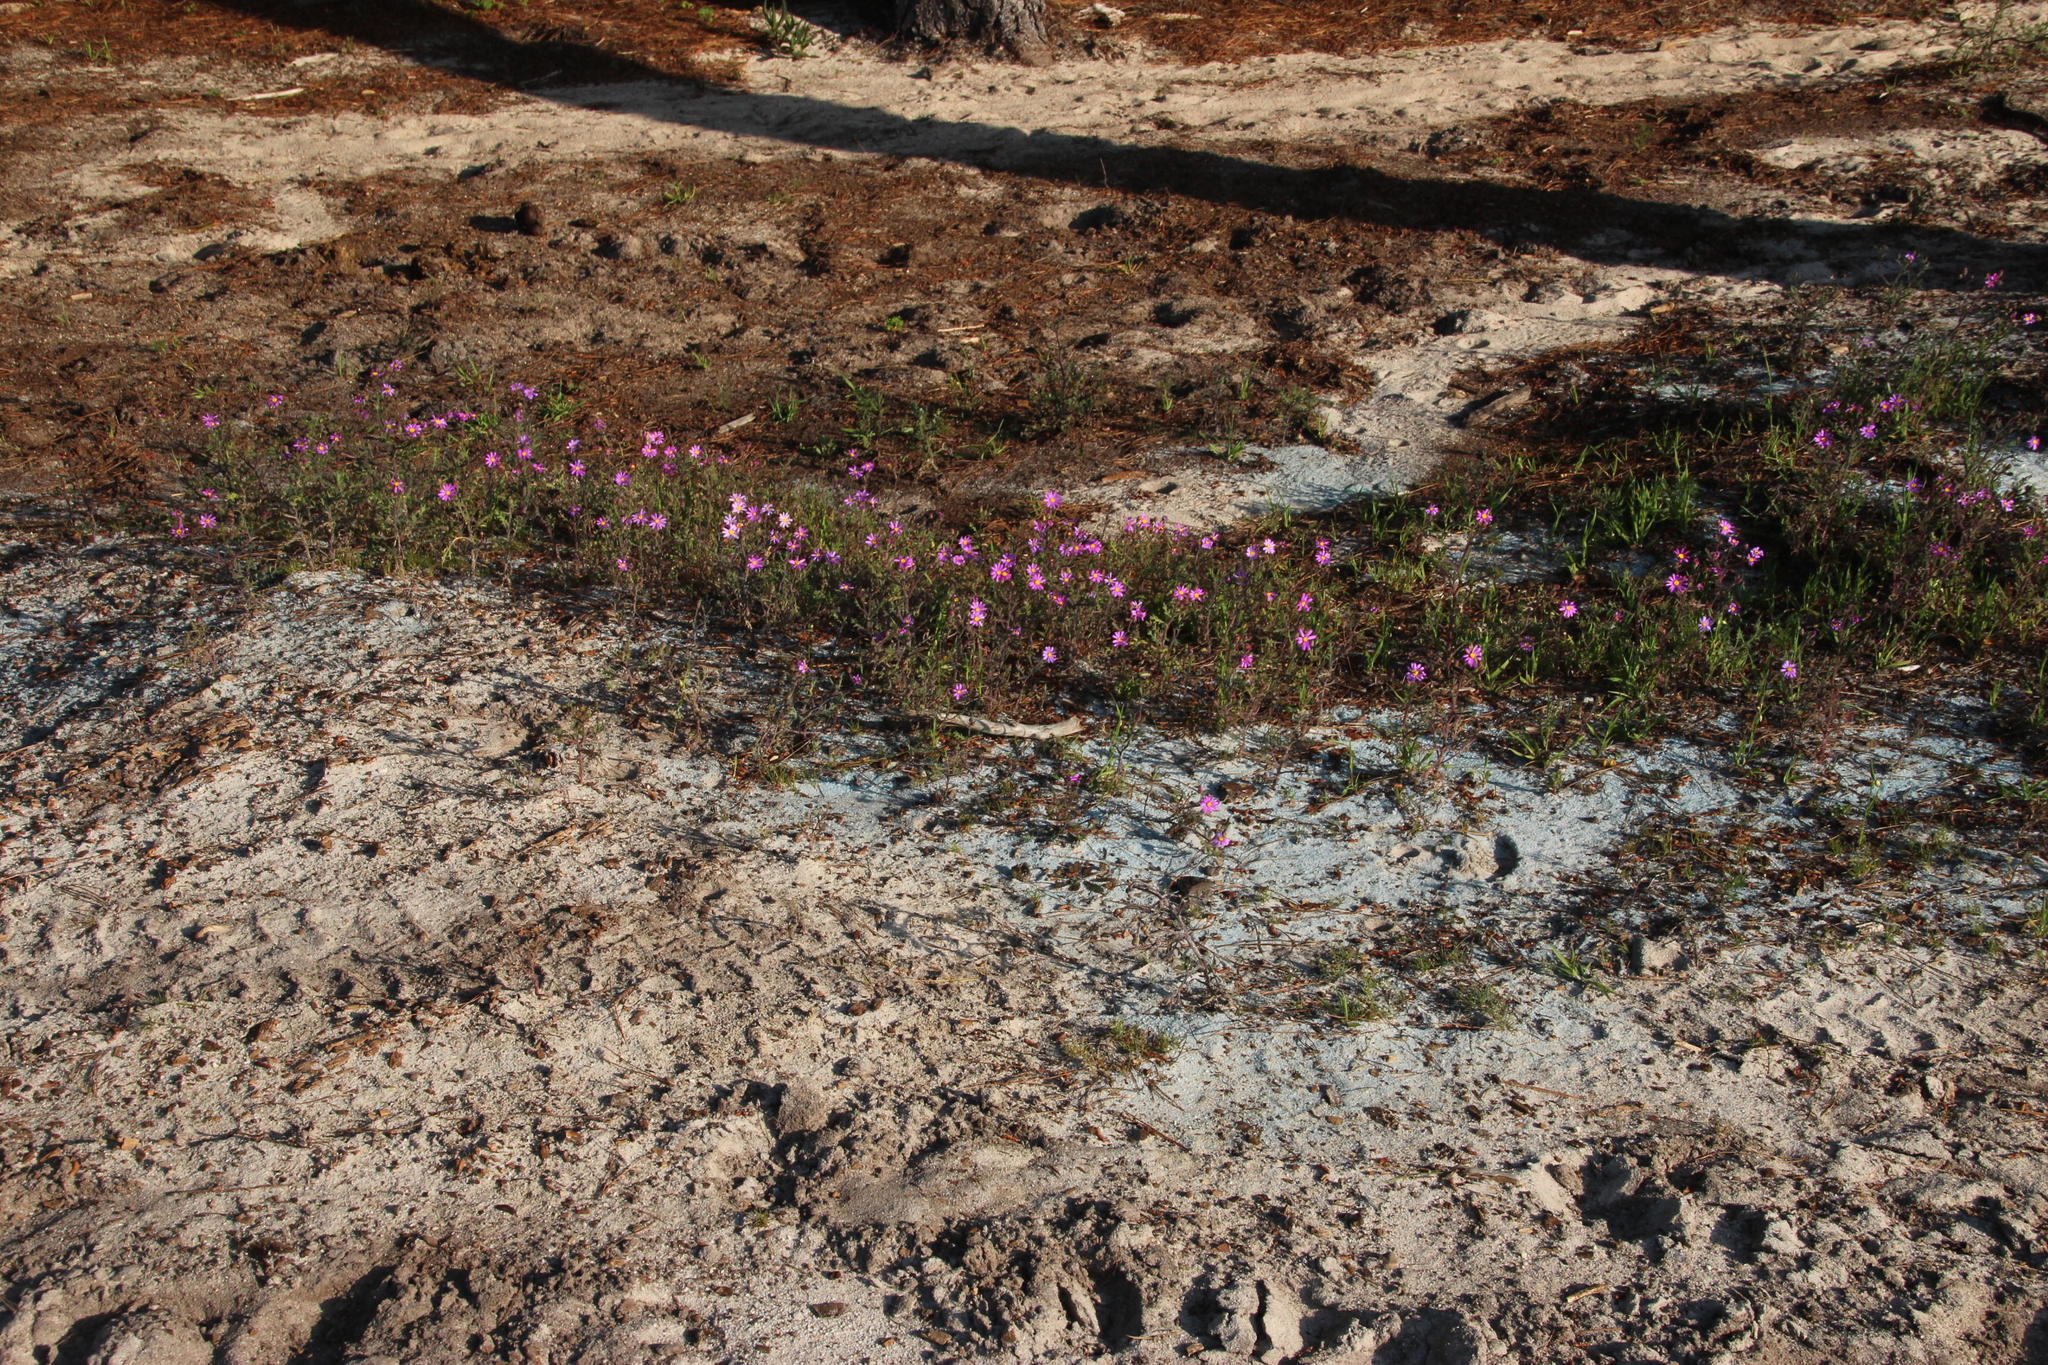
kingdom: Plantae
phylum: Tracheophyta
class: Magnoliopsida
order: Asterales
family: Asteraceae
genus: Senecio
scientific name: Senecio arenarius
